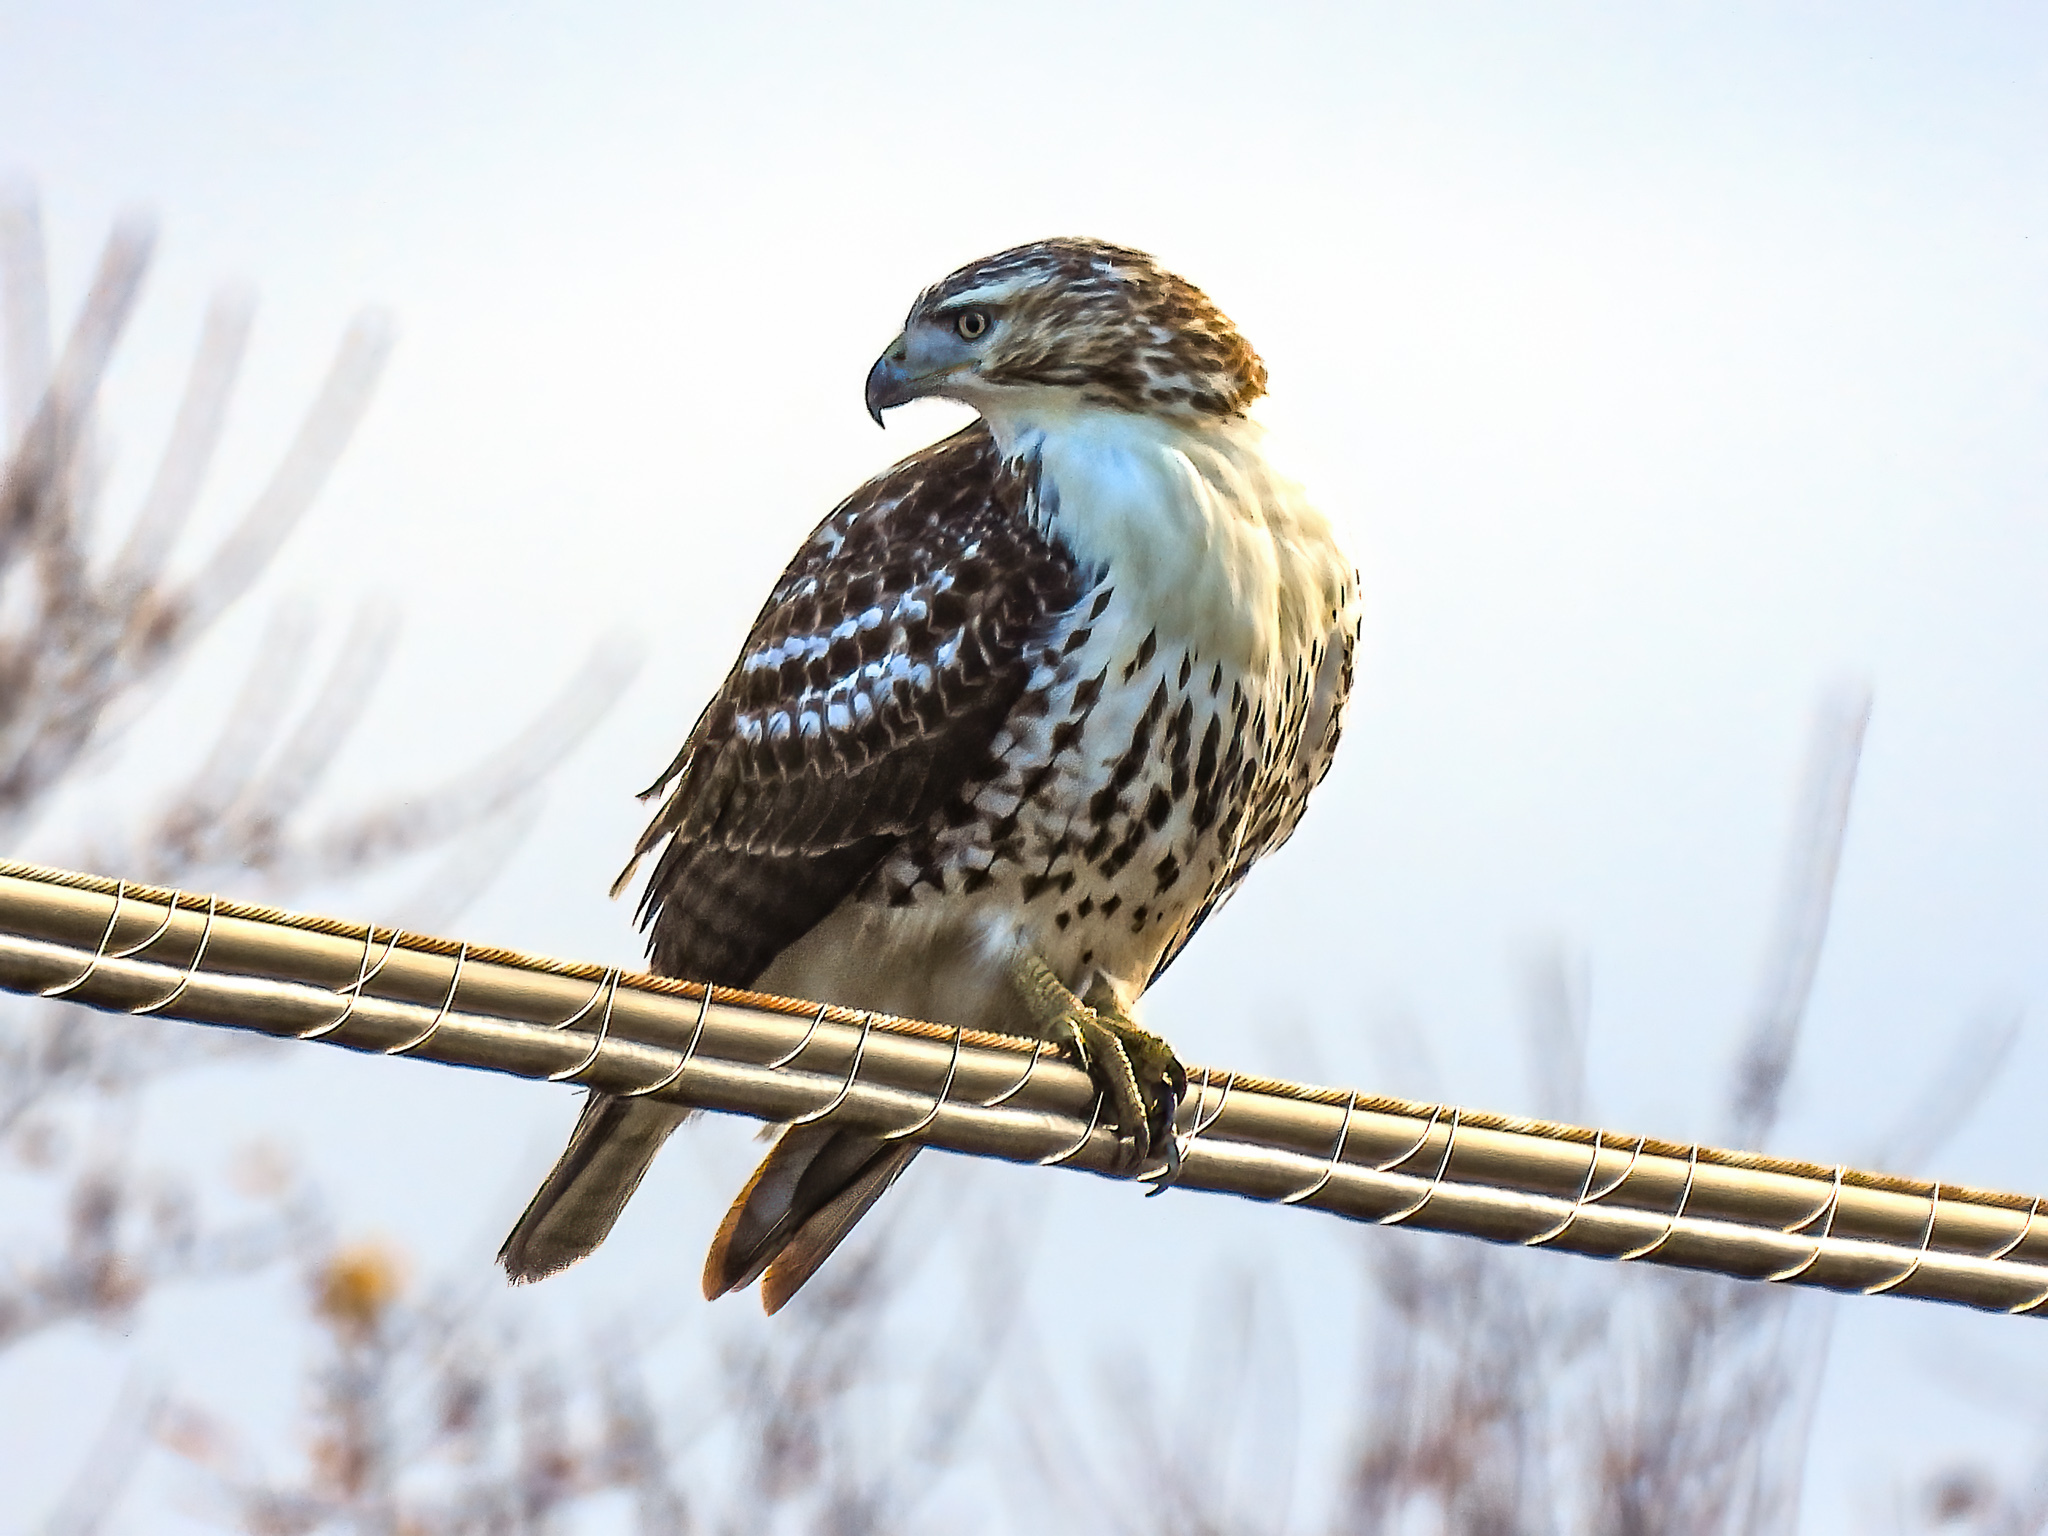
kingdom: Animalia
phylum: Chordata
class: Aves
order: Accipitriformes
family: Accipitridae
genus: Buteo
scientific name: Buteo jamaicensis
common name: Red-tailed hawk
